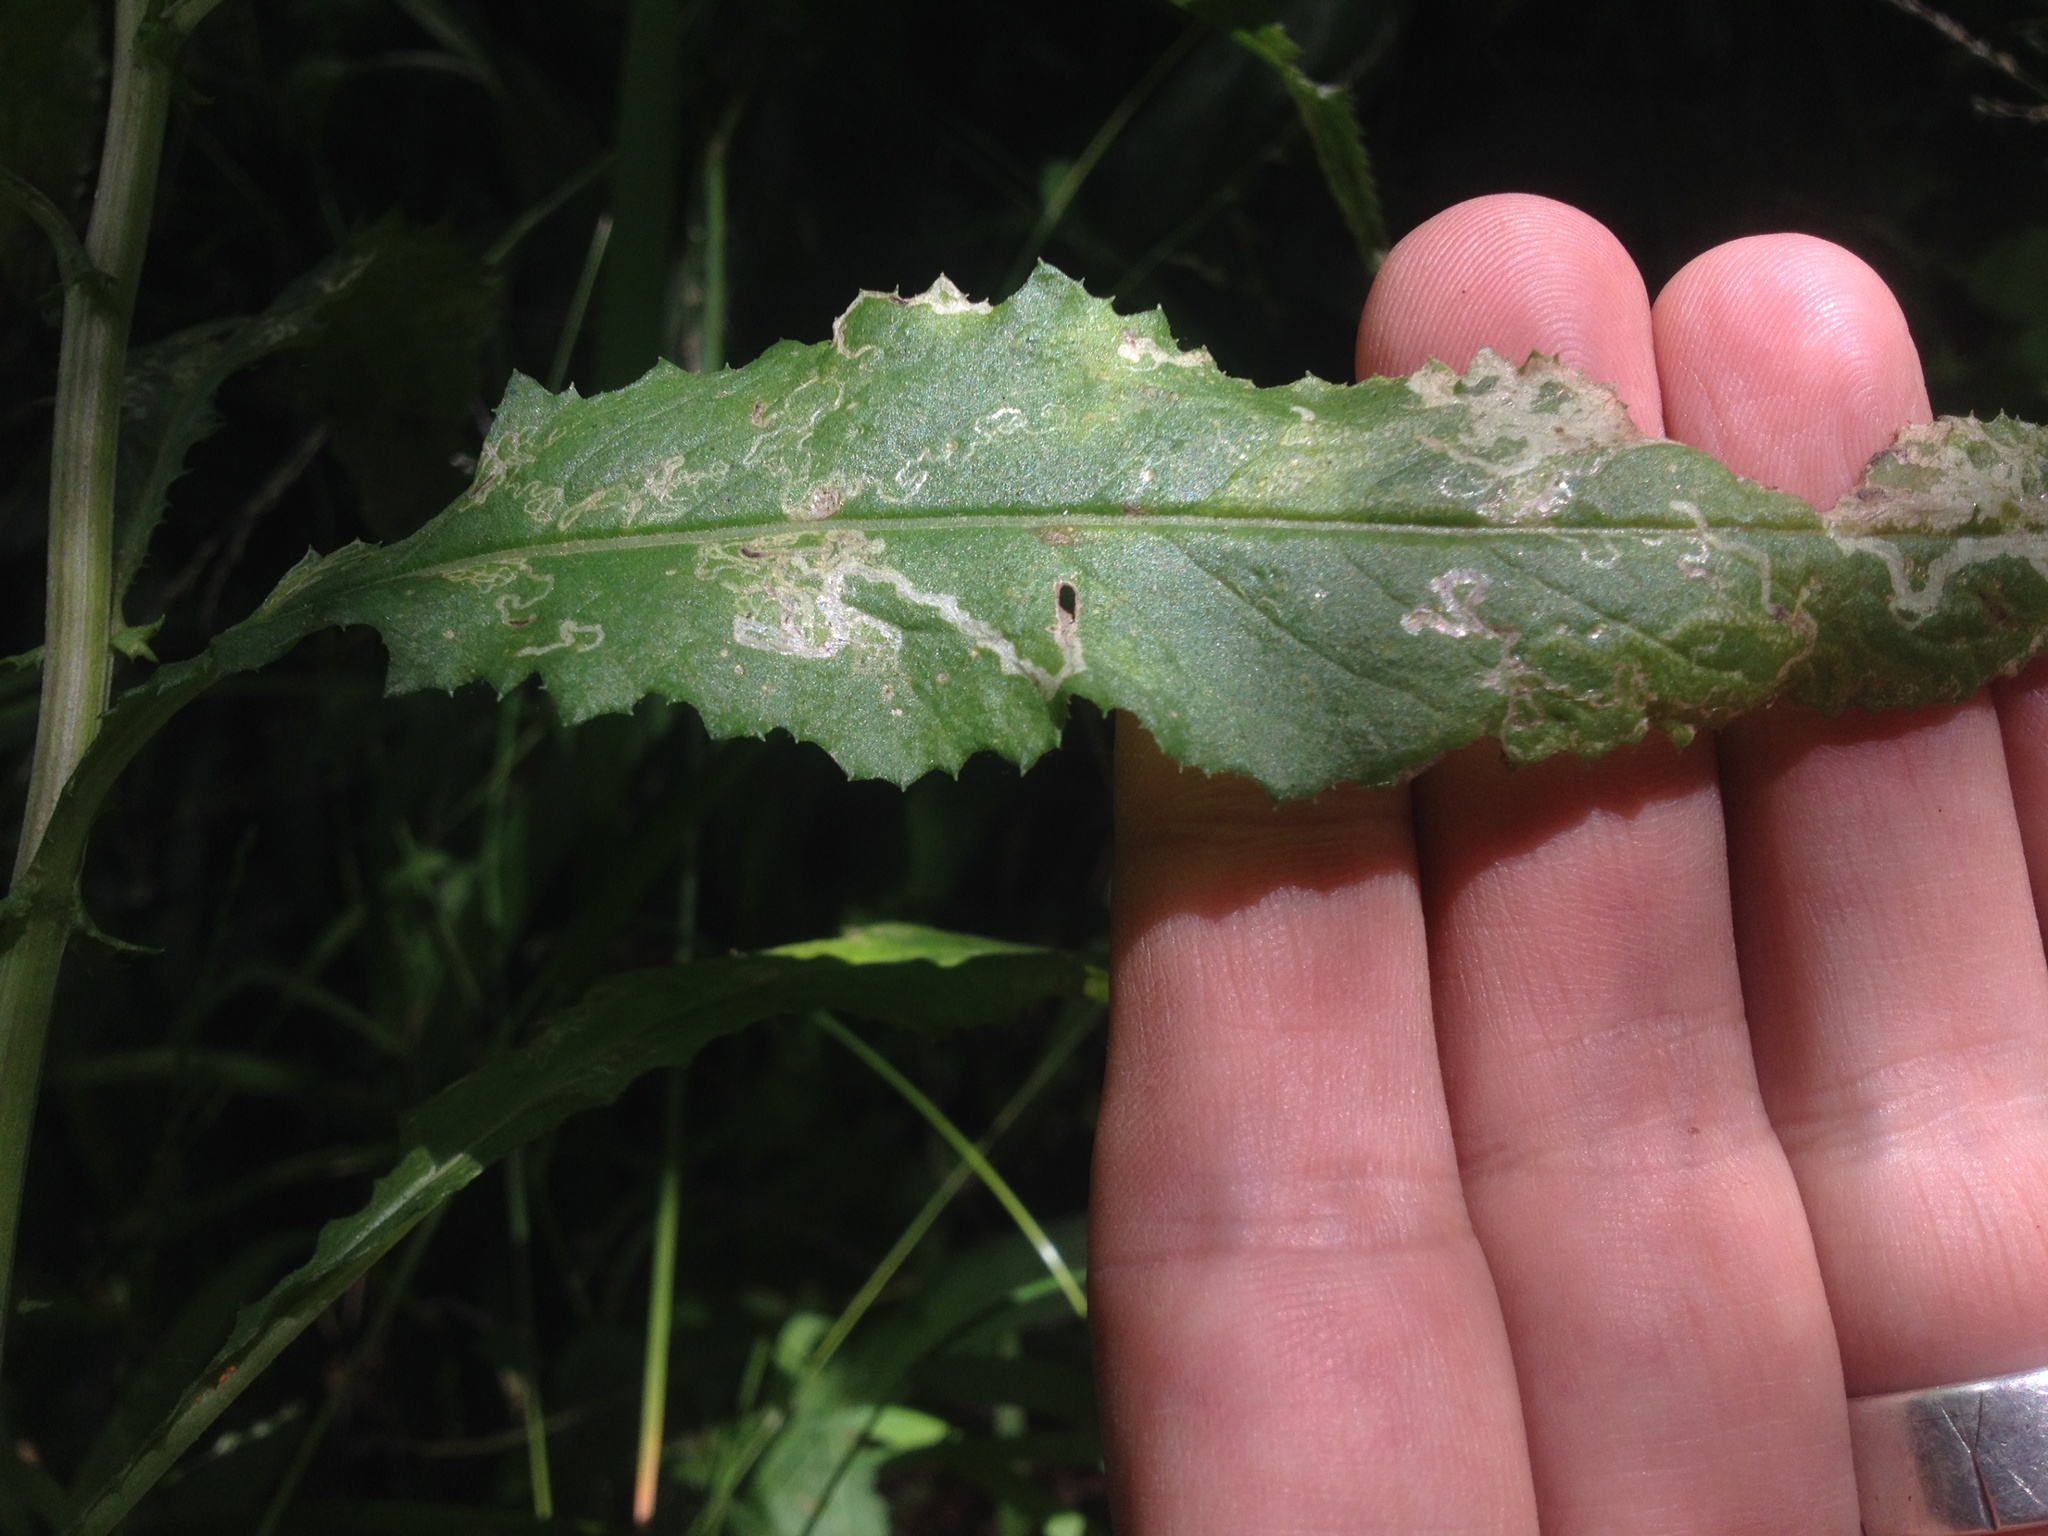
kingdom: Animalia
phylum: Arthropoda
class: Insecta
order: Lepidoptera
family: Nepticulidae
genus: Stigmella
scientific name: Stigmella ogygia
